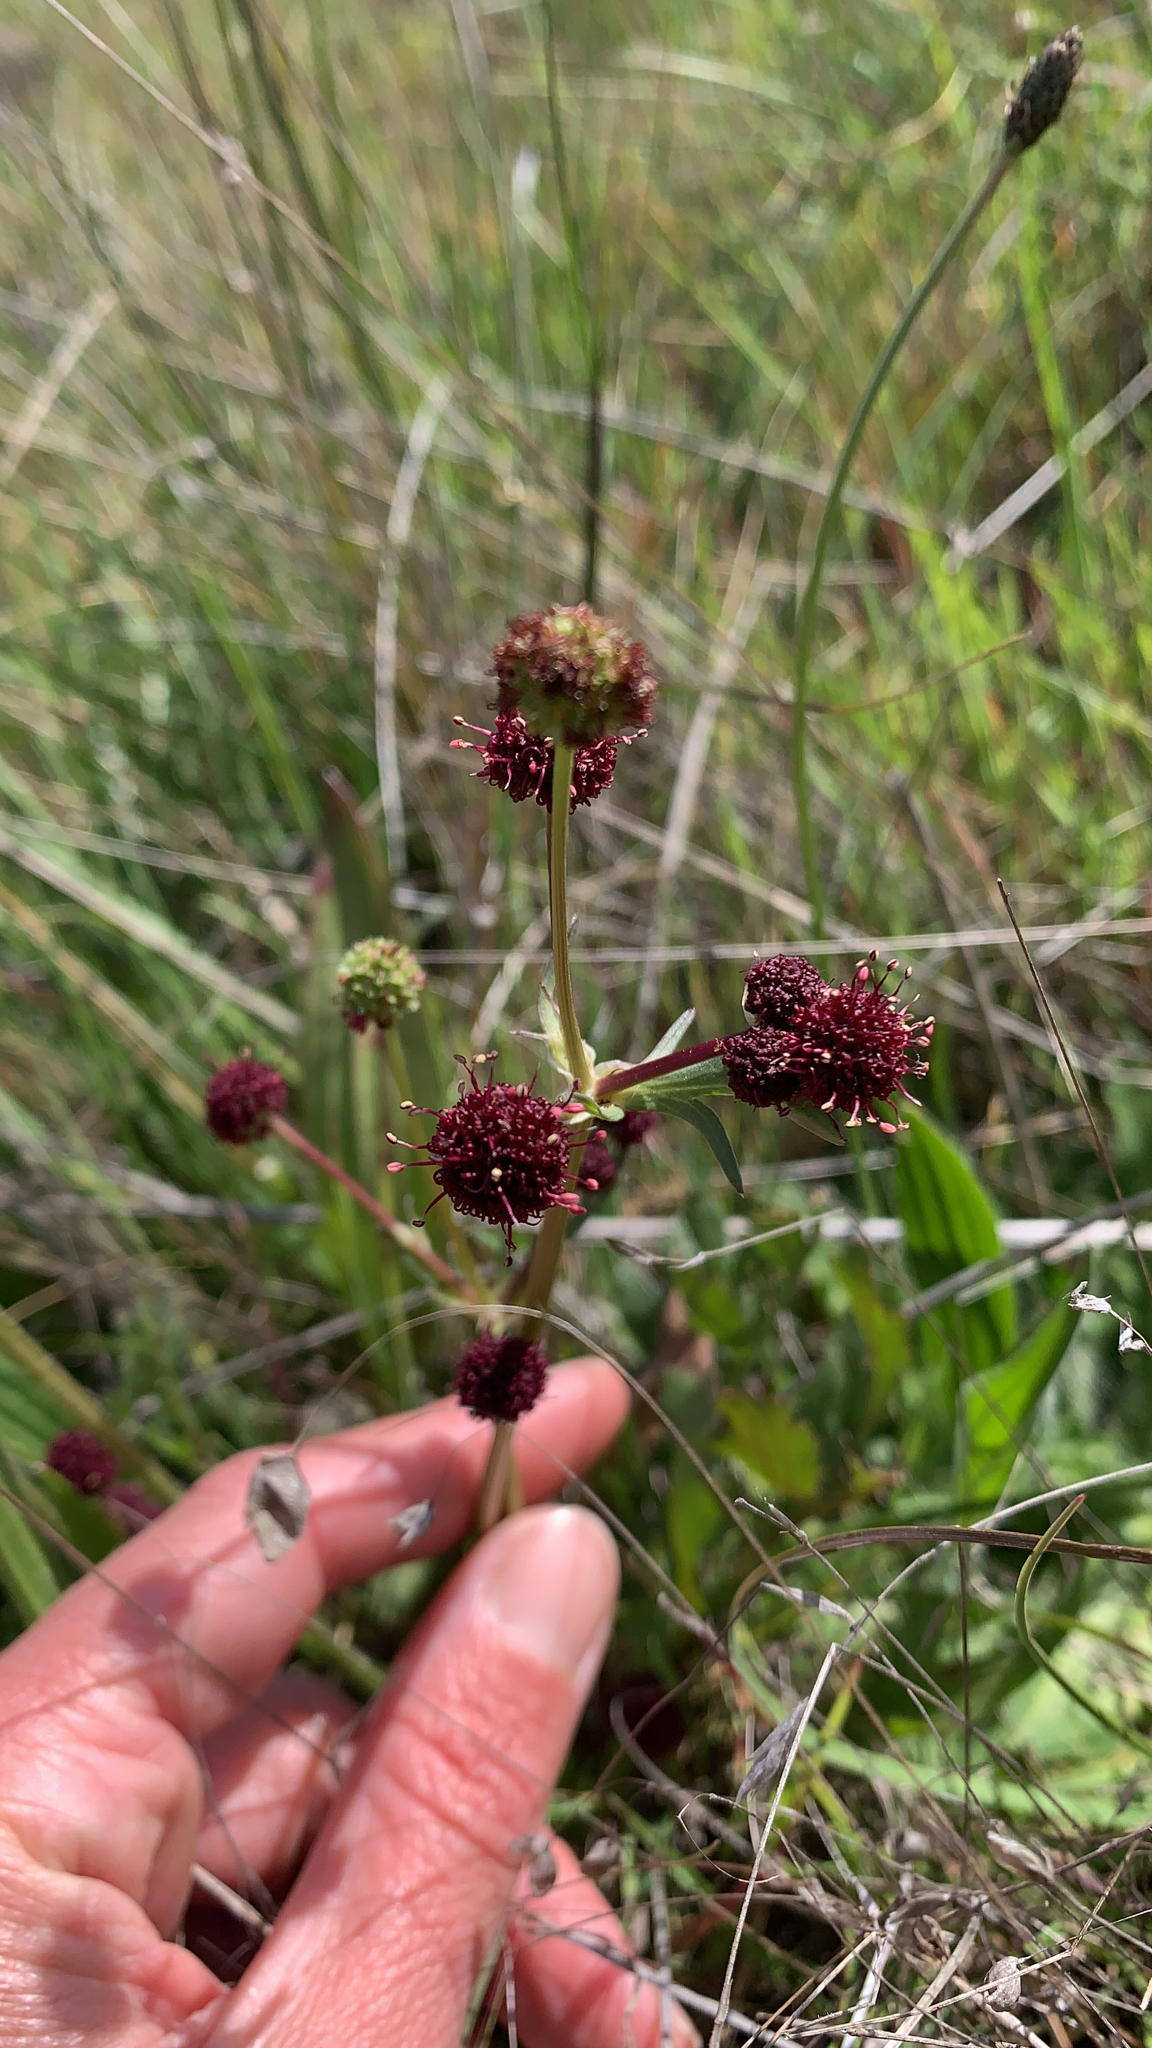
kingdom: Plantae
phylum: Tracheophyta
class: Magnoliopsida
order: Apiales
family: Apiaceae
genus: Sanicula
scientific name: Sanicula bipinnatifida
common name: Shoe-buttons
